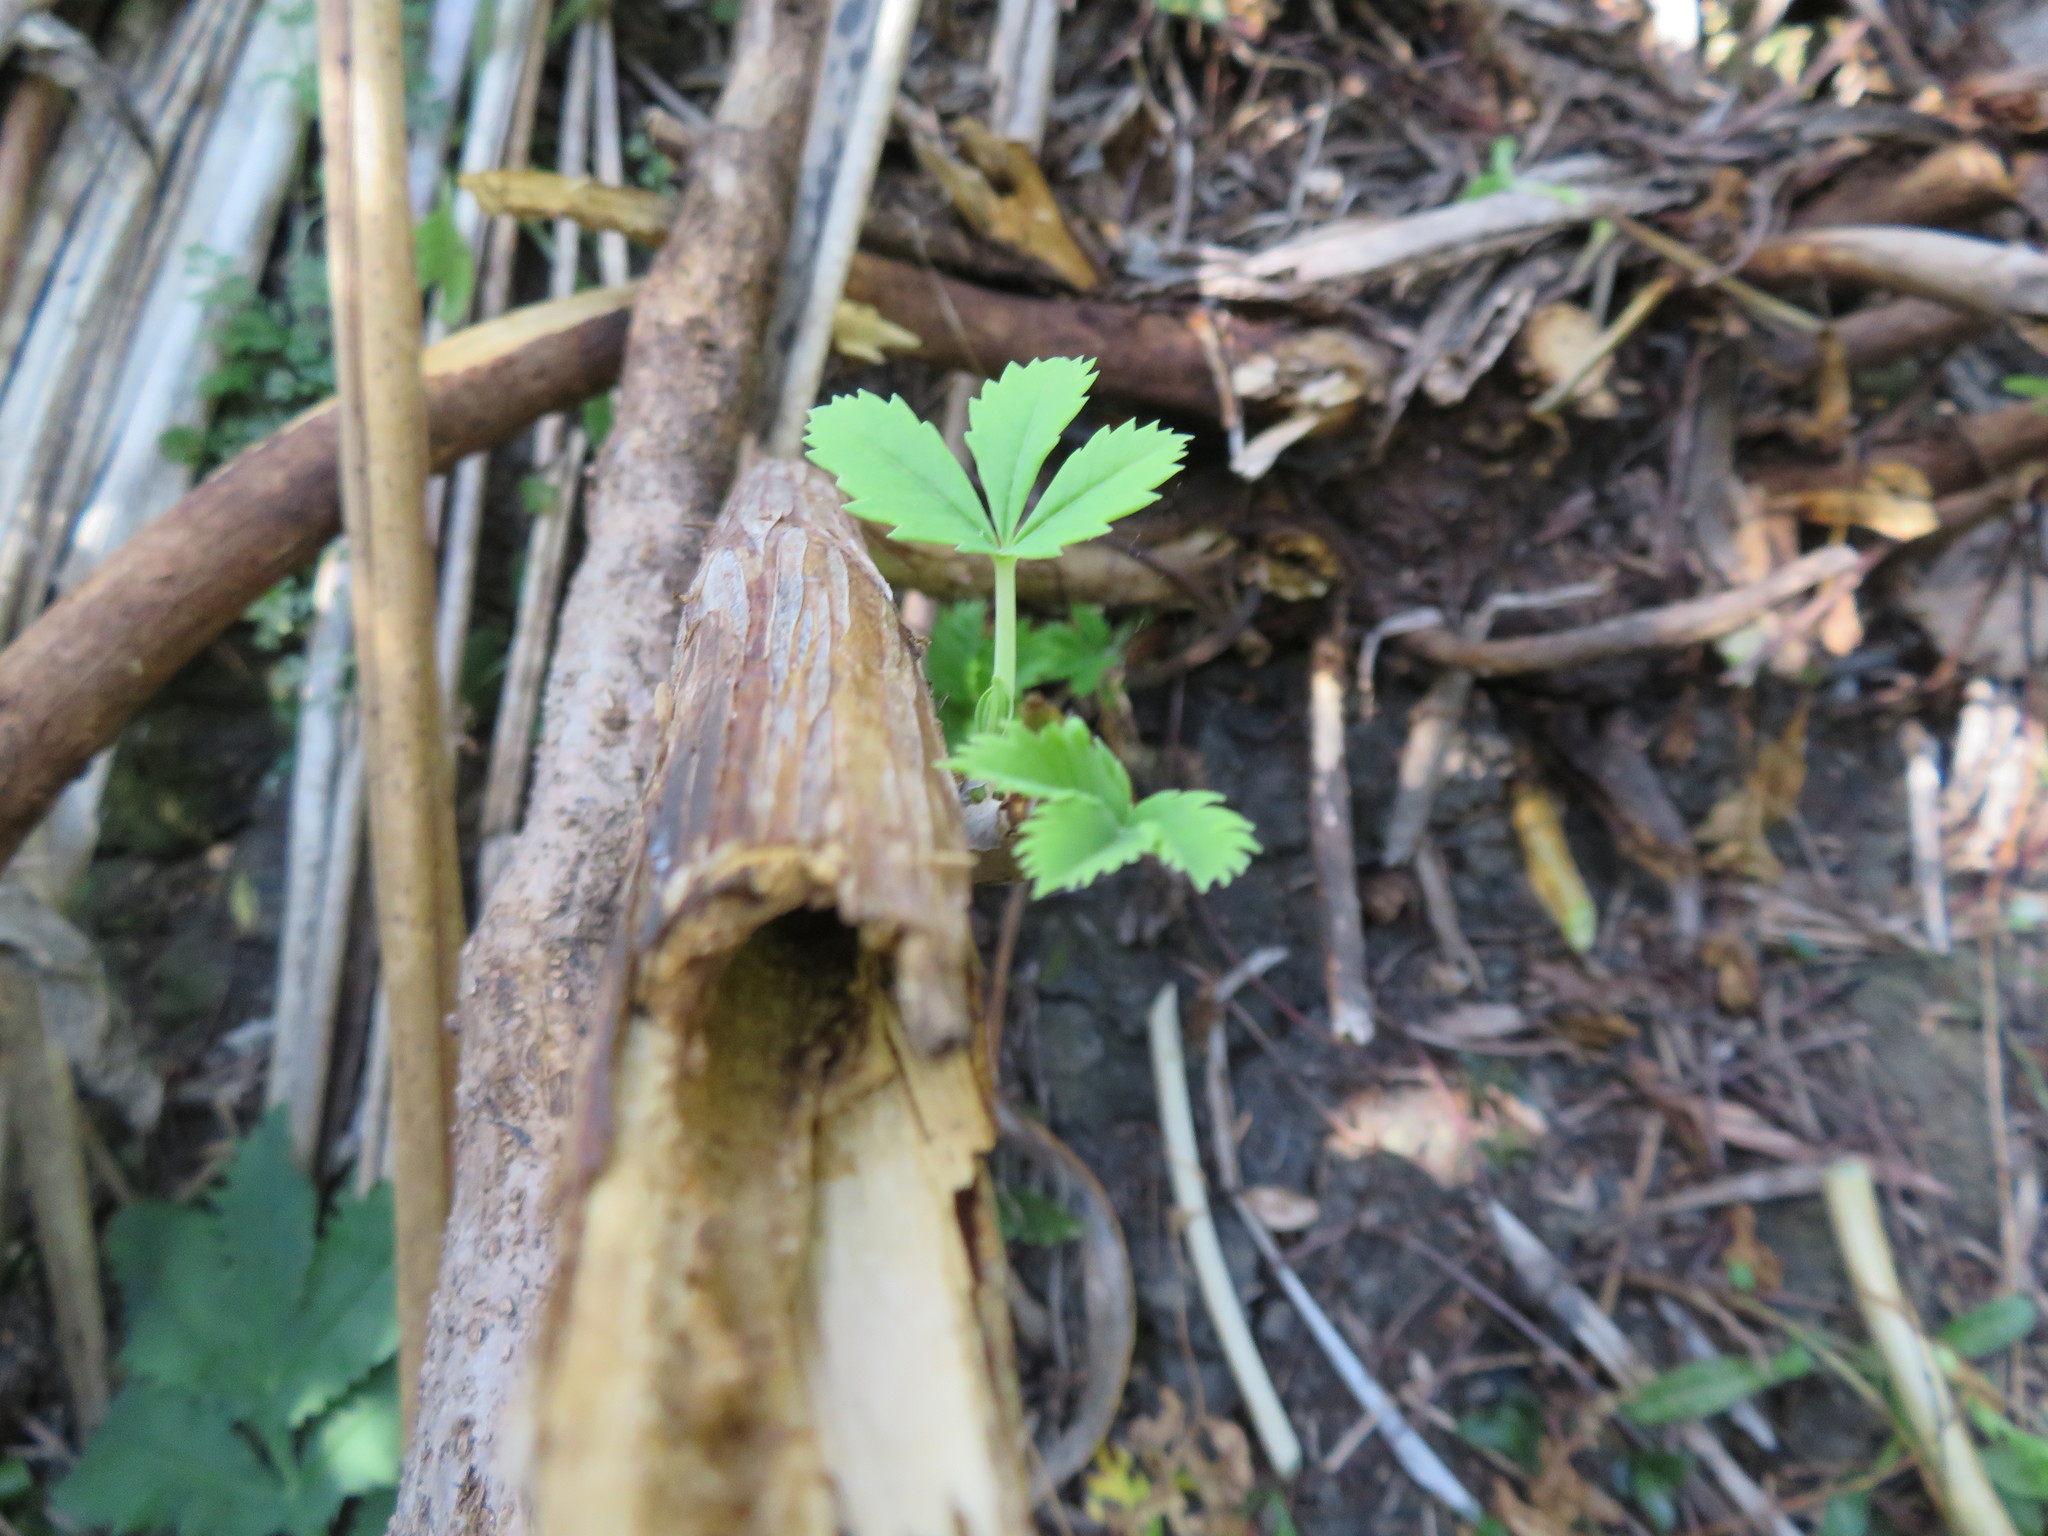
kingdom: Plantae
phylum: Tracheophyta
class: Magnoliopsida
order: Geraniales
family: Melianthaceae
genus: Melianthus
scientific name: Melianthus major
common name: Honey-flower
